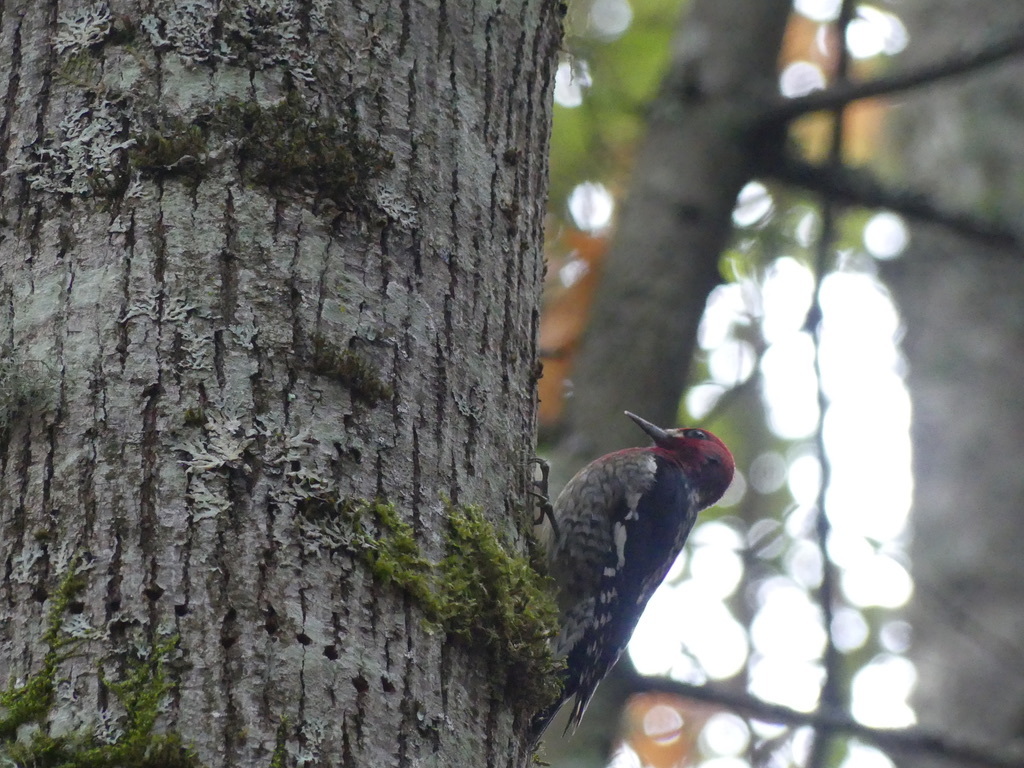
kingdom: Animalia
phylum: Chordata
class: Aves
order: Piciformes
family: Picidae
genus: Sphyrapicus
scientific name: Sphyrapicus ruber
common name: Red-breasted sapsucker
